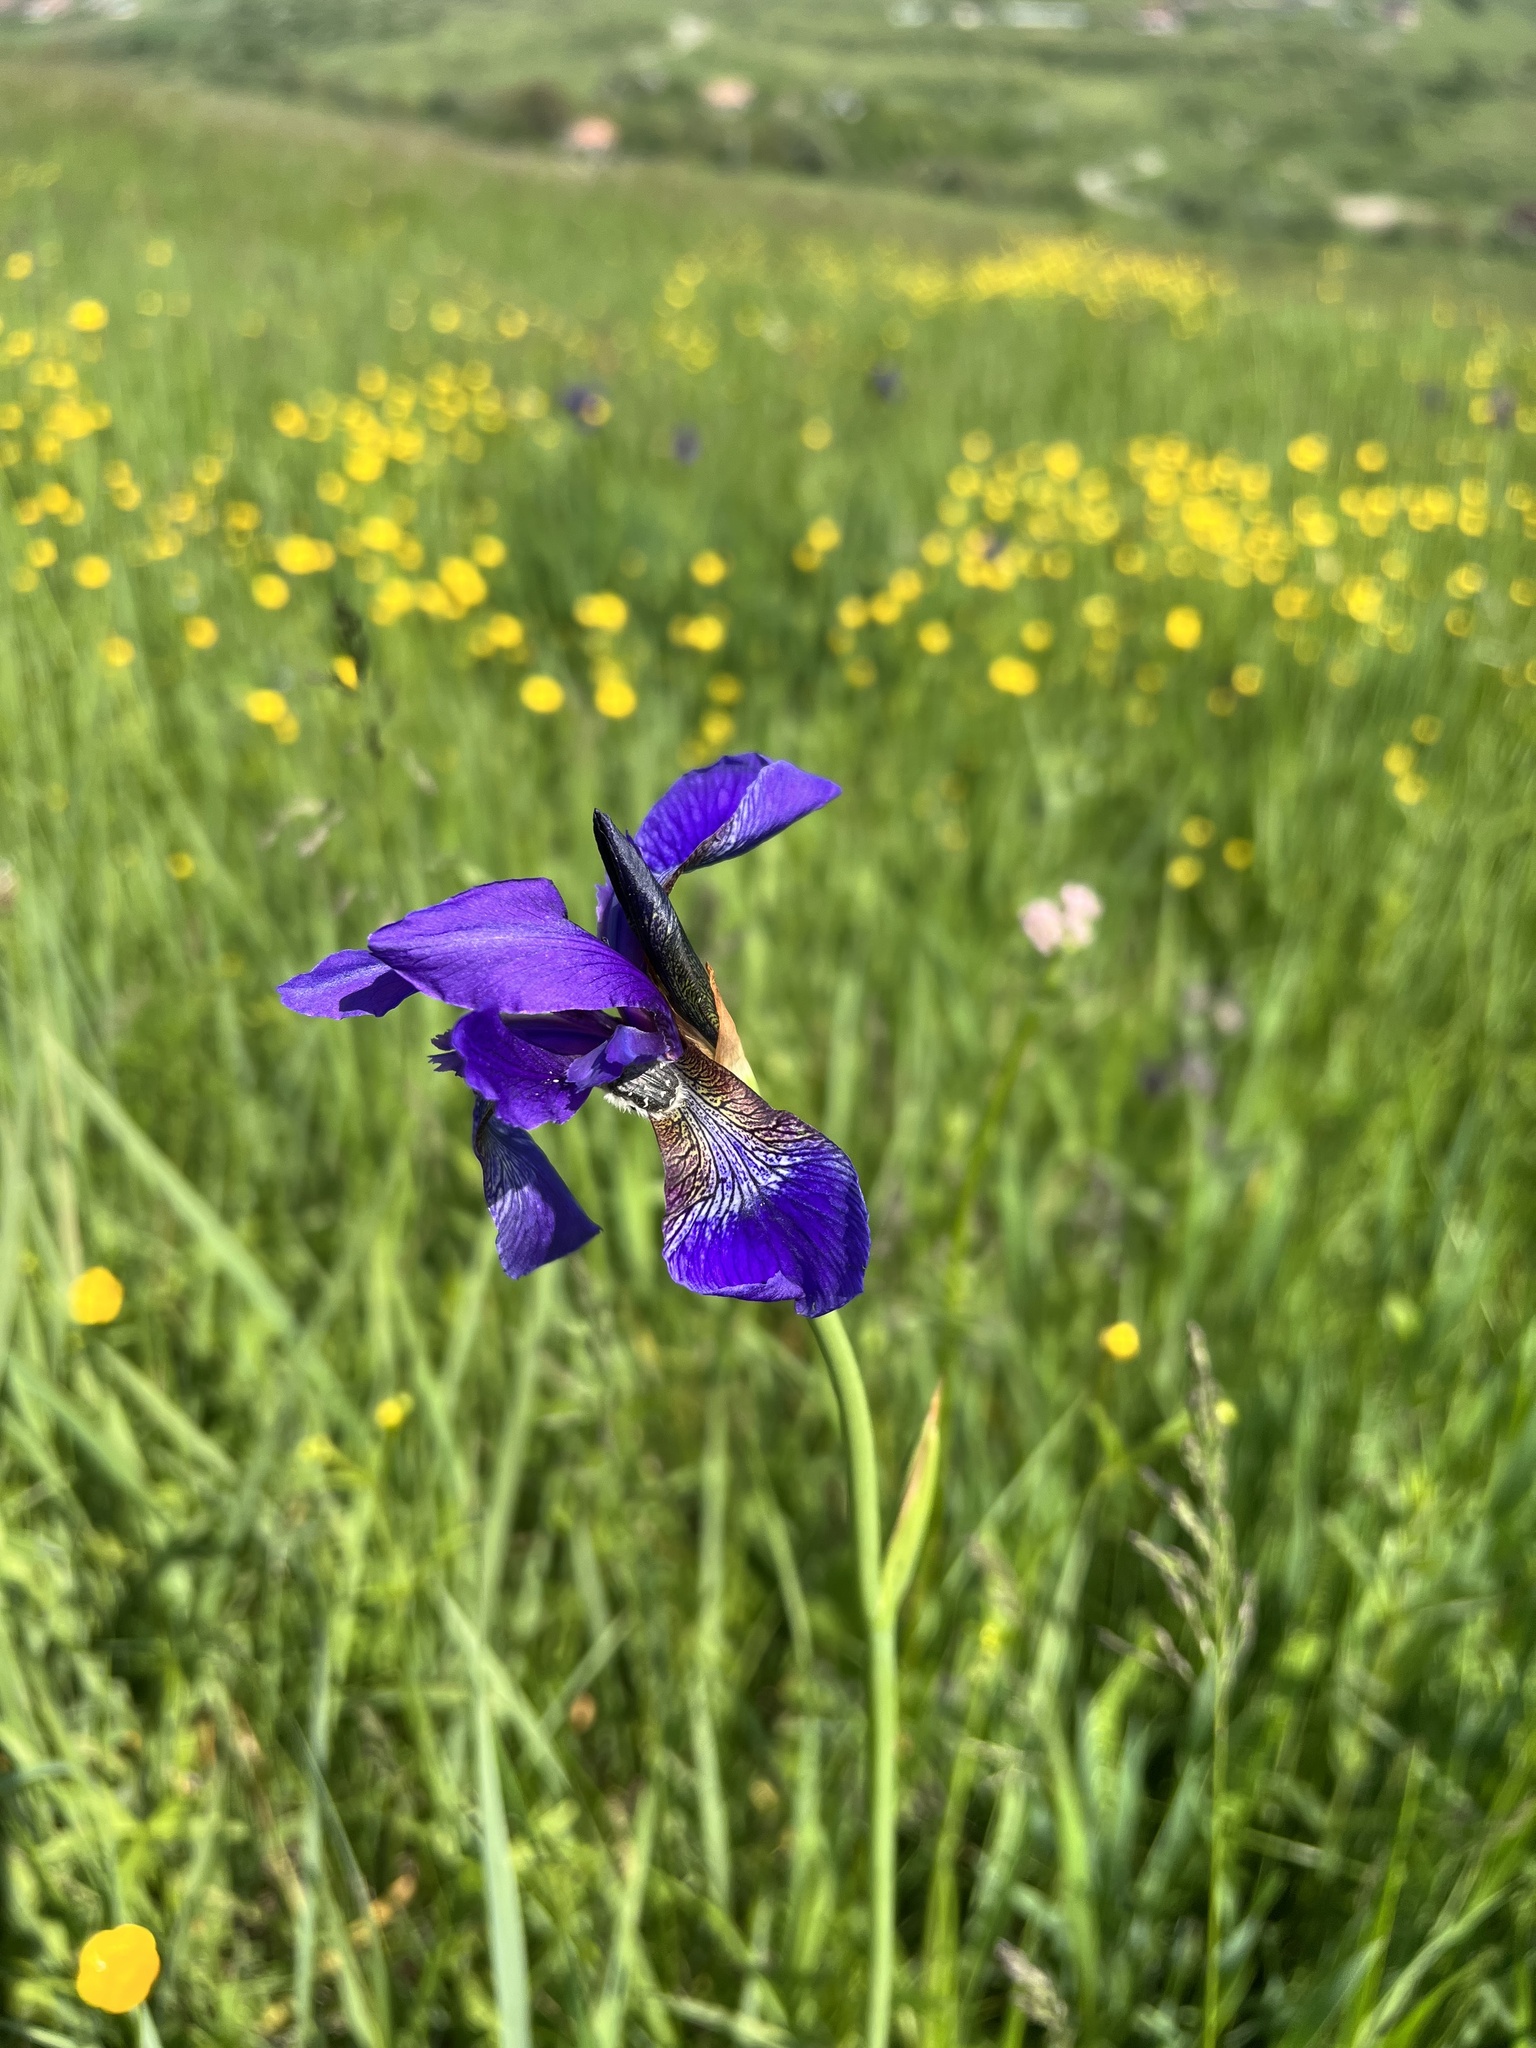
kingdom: Plantae
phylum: Tracheophyta
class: Liliopsida
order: Asparagales
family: Iridaceae
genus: Iris
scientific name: Iris sibirica
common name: Siberian iris
